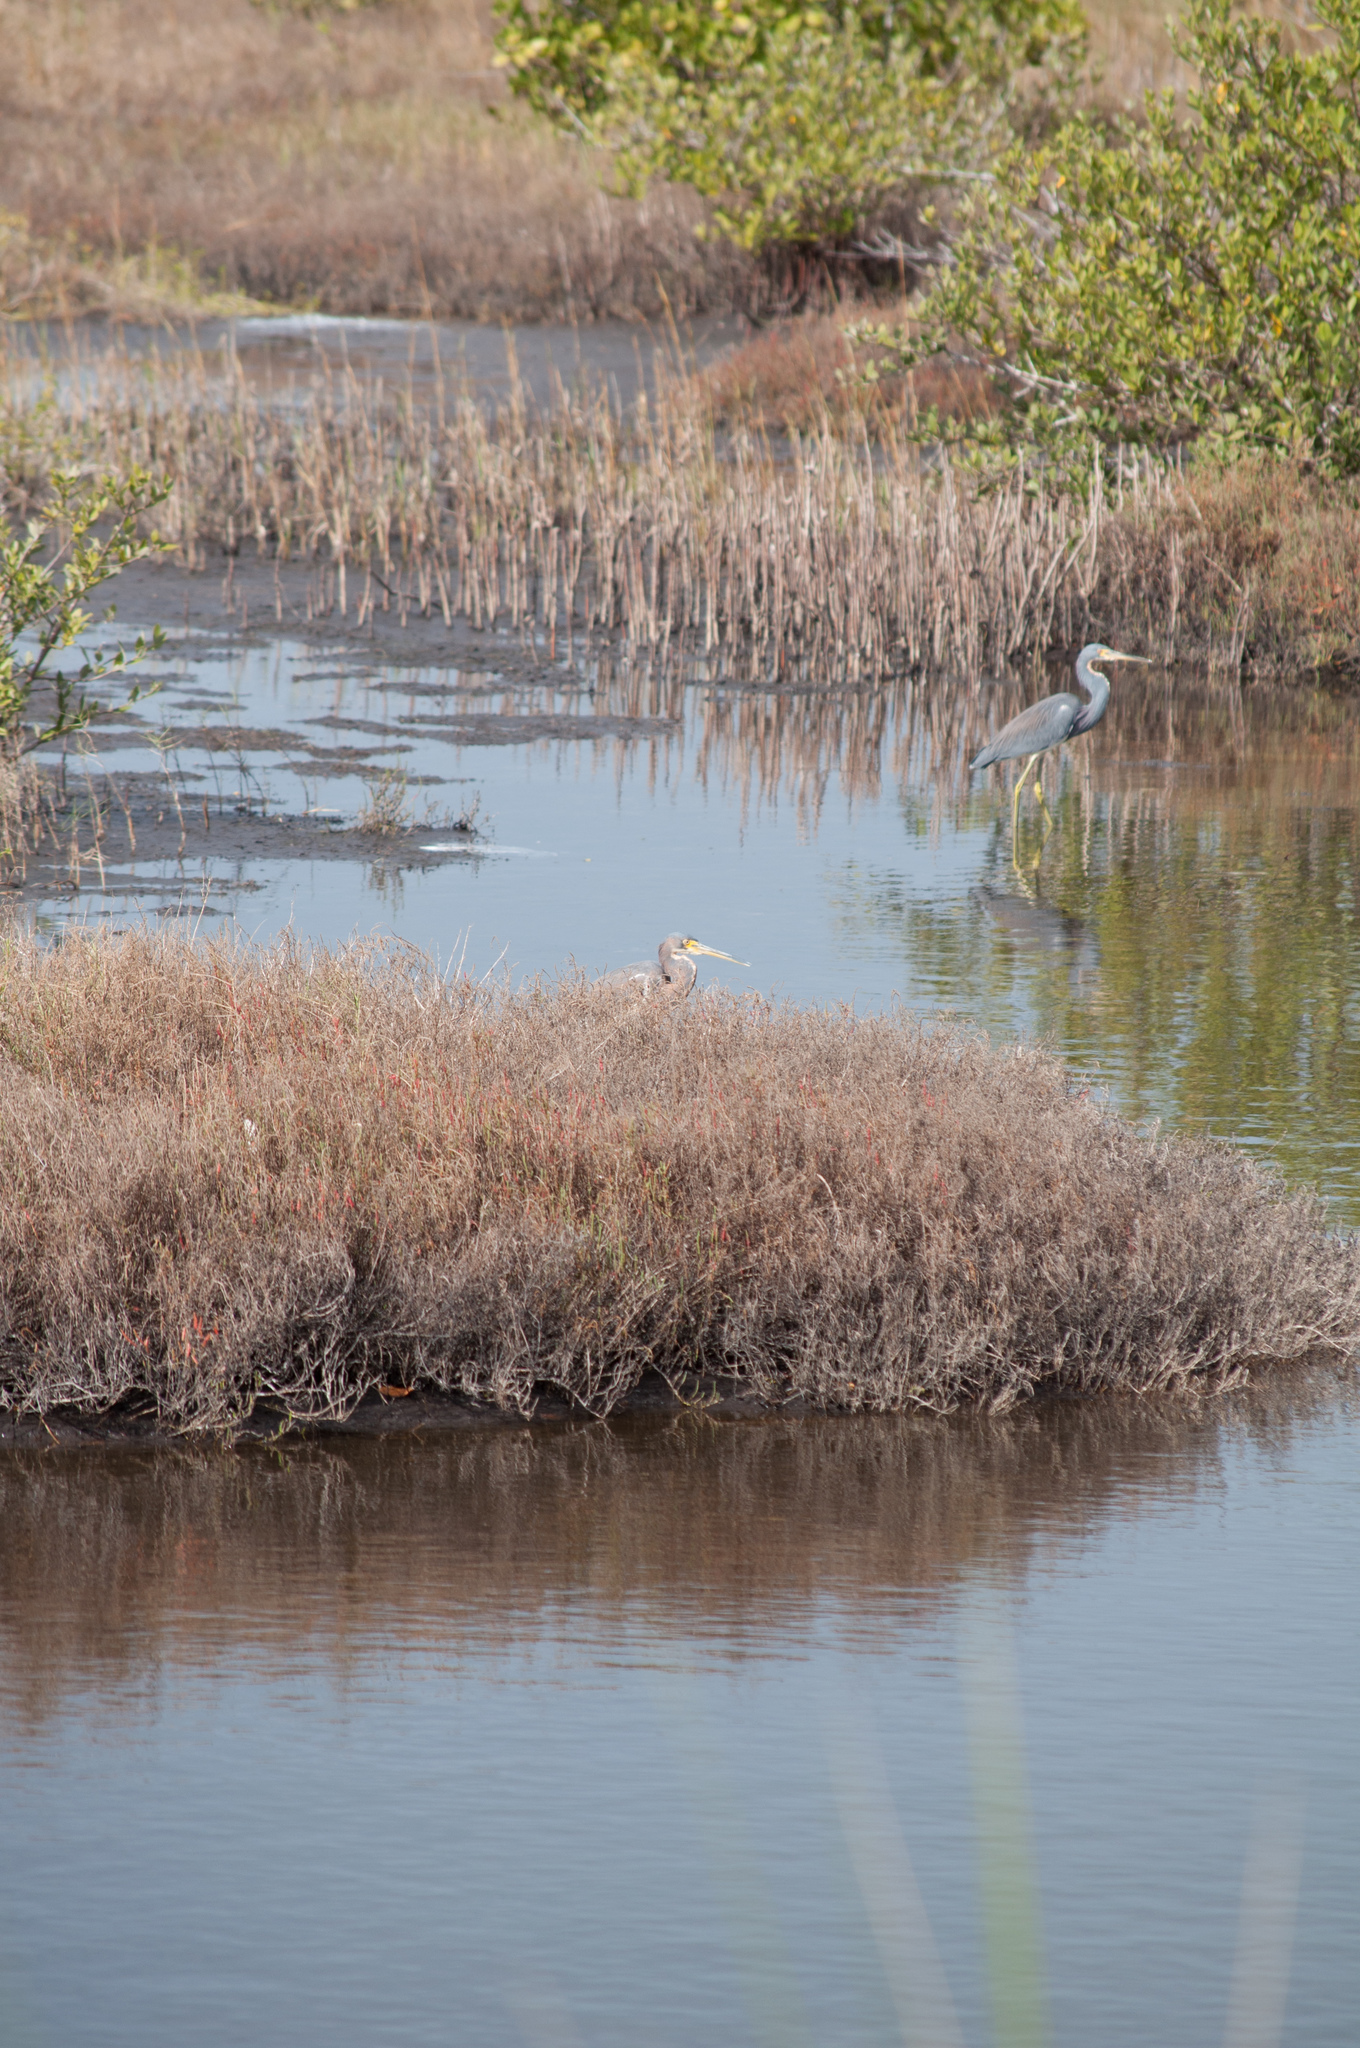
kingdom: Animalia
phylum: Chordata
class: Aves
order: Pelecaniformes
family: Ardeidae
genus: Egretta
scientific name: Egretta tricolor
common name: Tricolored heron
